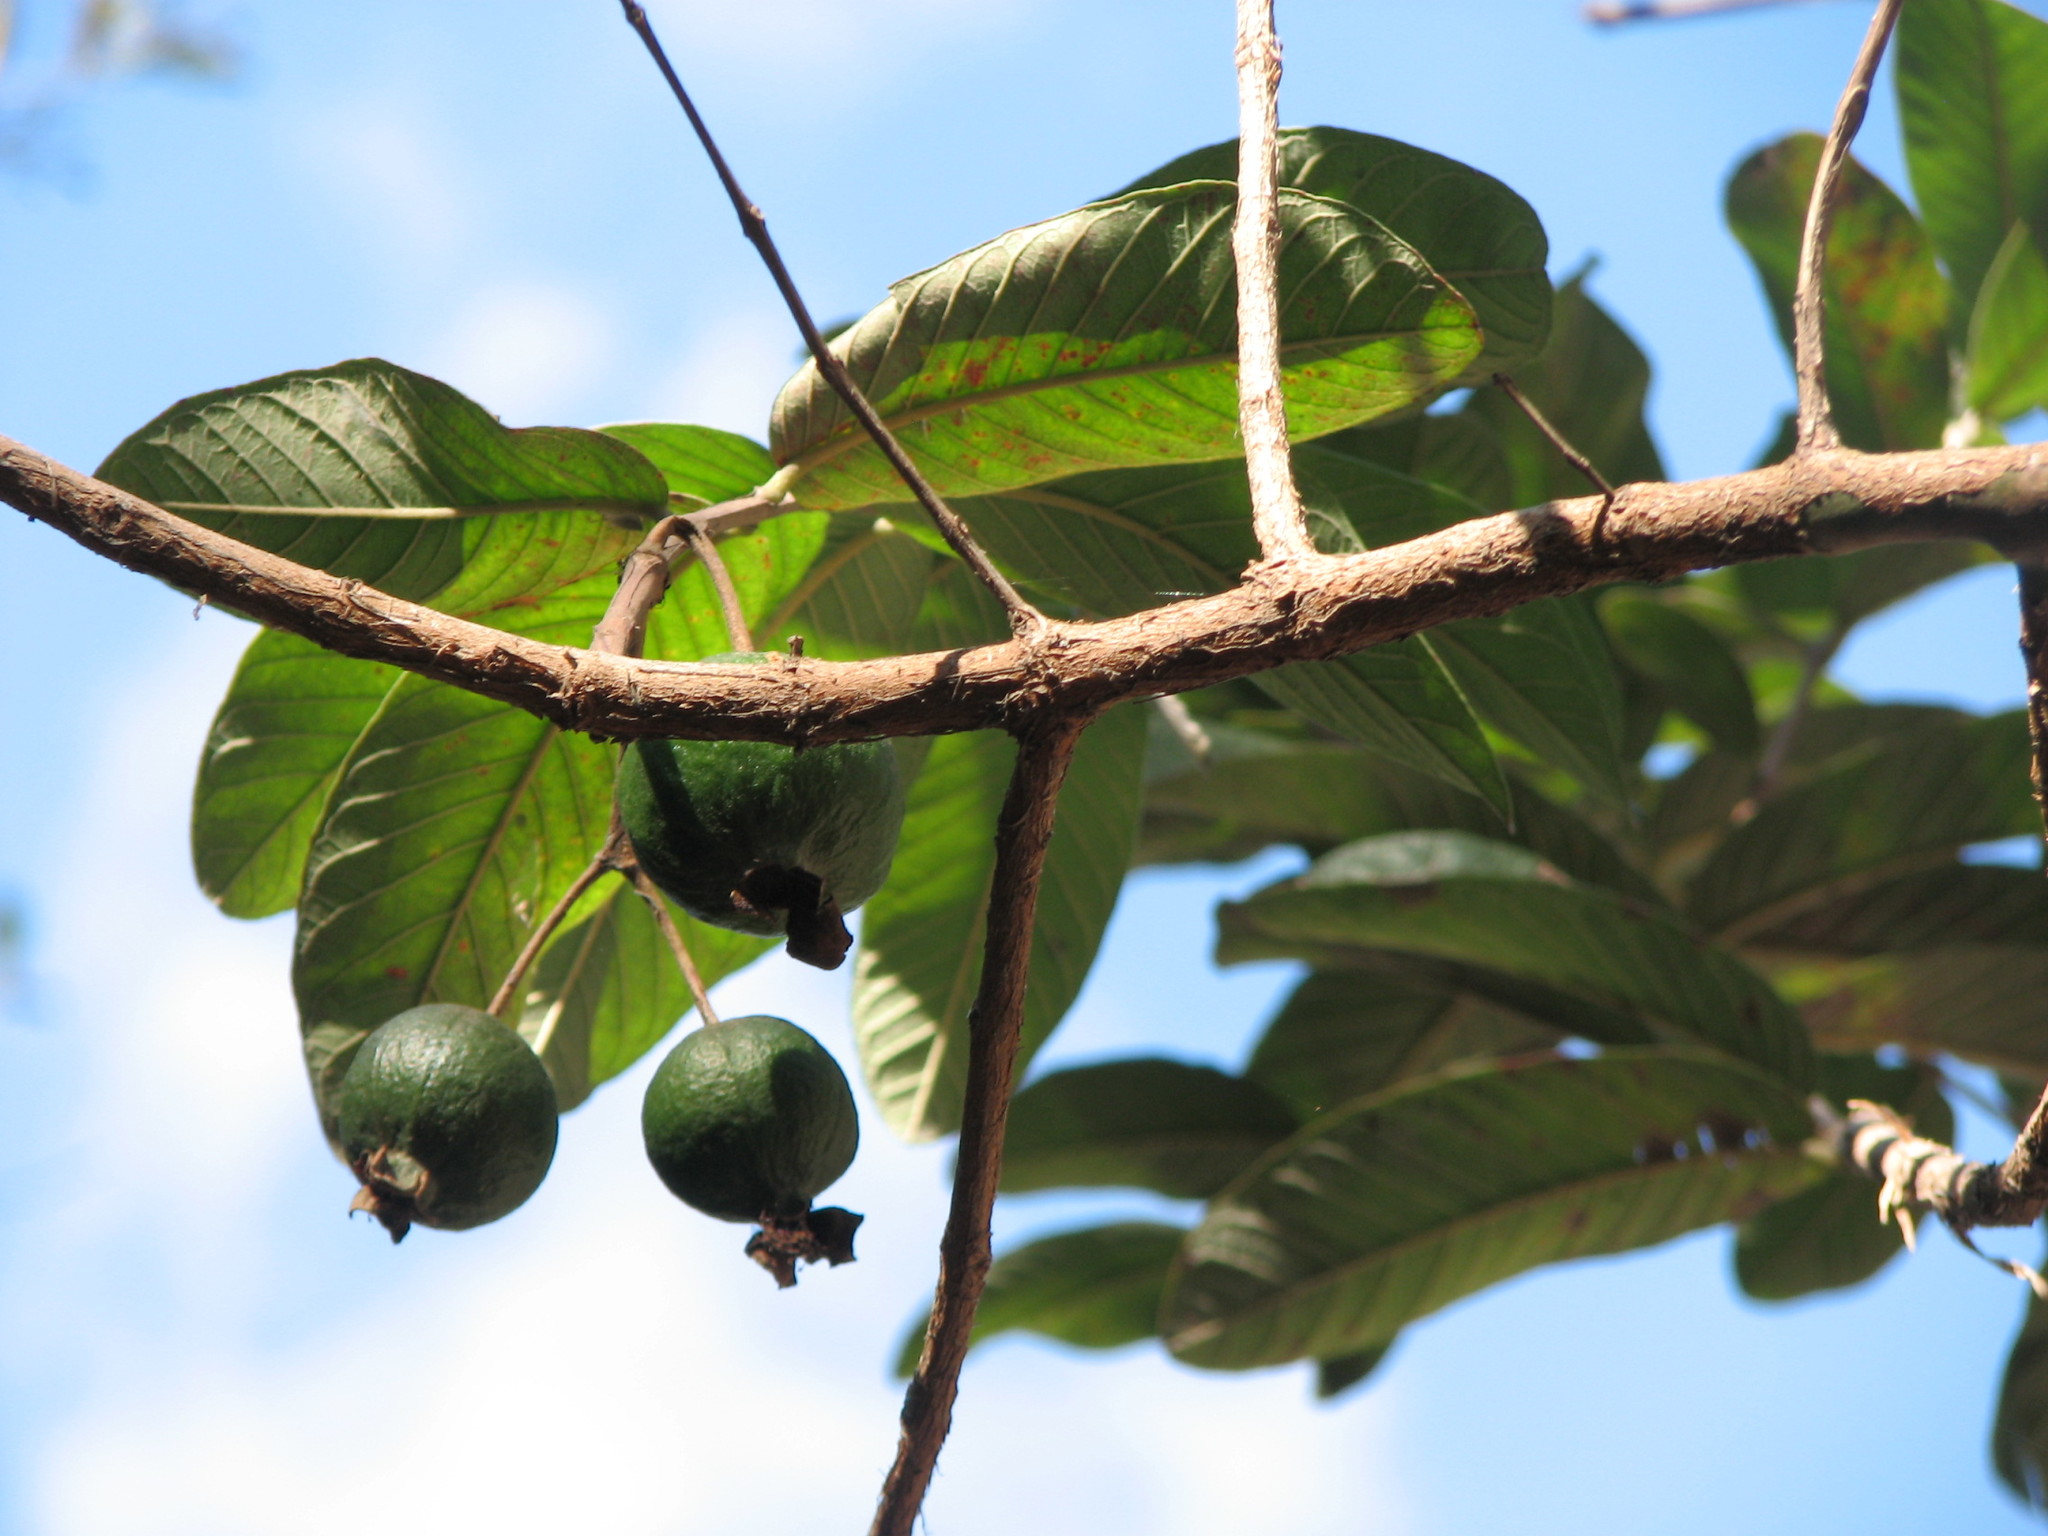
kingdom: Plantae
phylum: Tracheophyta
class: Magnoliopsida
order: Myrtales
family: Myrtaceae
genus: Psidium
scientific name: Psidium guajava
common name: Guava
